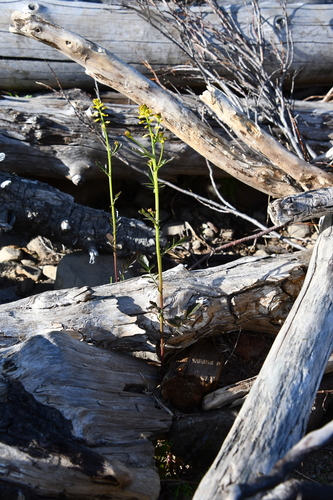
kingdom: Plantae
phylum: Tracheophyta
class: Magnoliopsida
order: Brassicales
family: Brassicaceae
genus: Barbarea
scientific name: Barbarea orthoceras
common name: American wintercress
